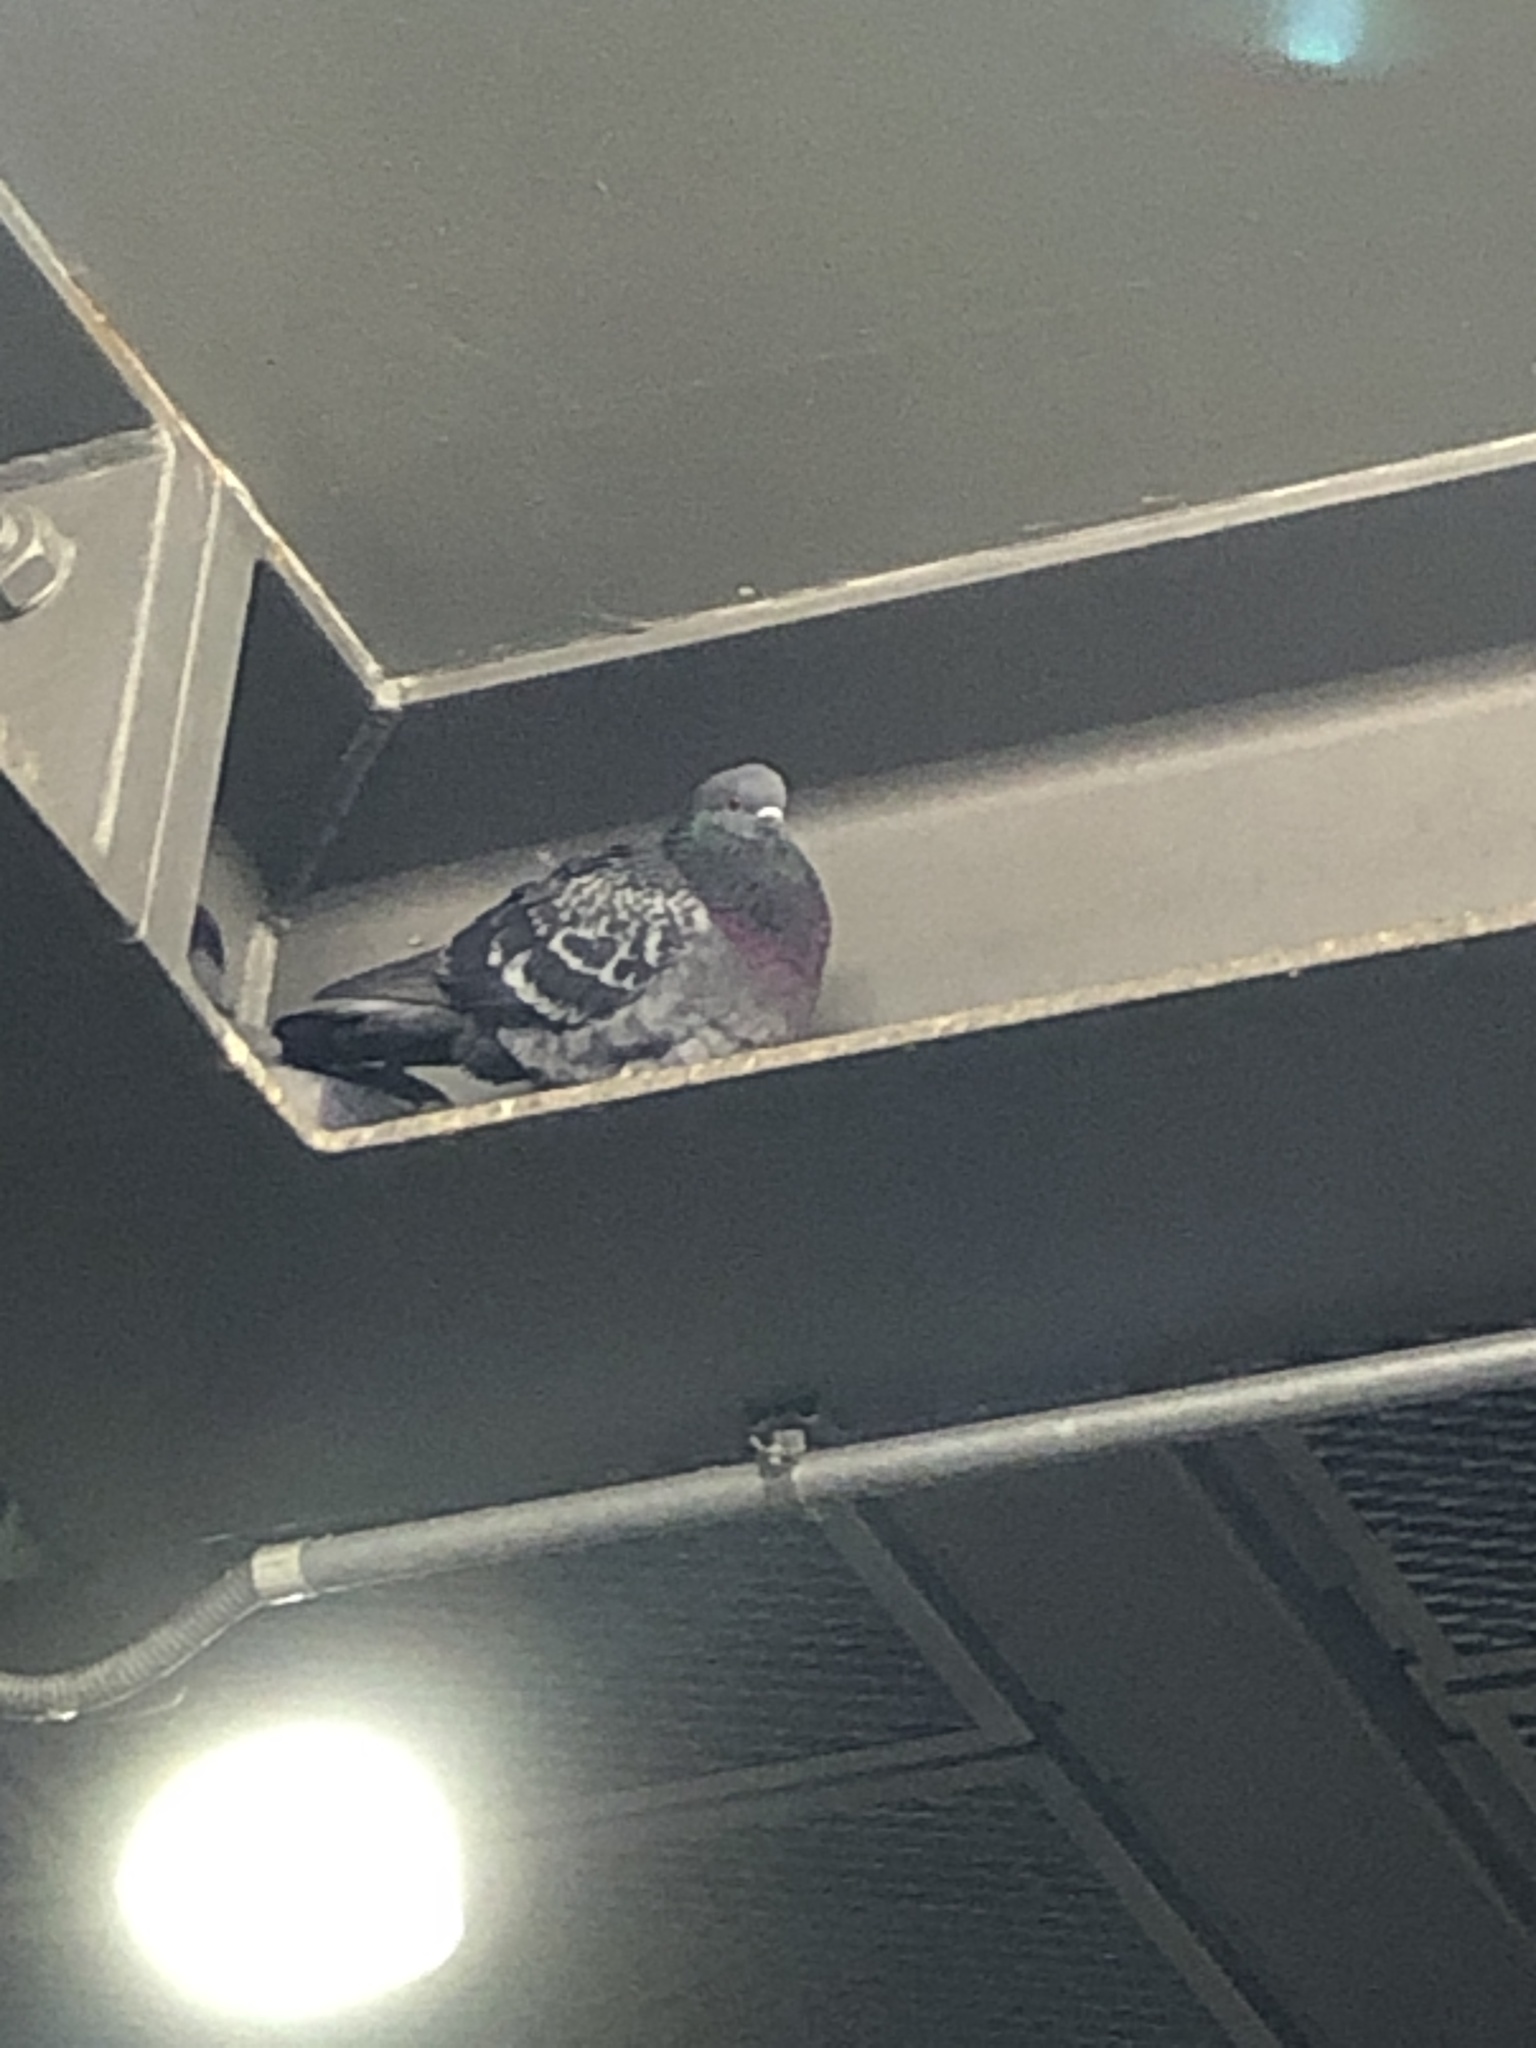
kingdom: Animalia
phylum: Chordata
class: Aves
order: Columbiformes
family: Columbidae
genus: Columba
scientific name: Columba livia
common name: Rock pigeon
